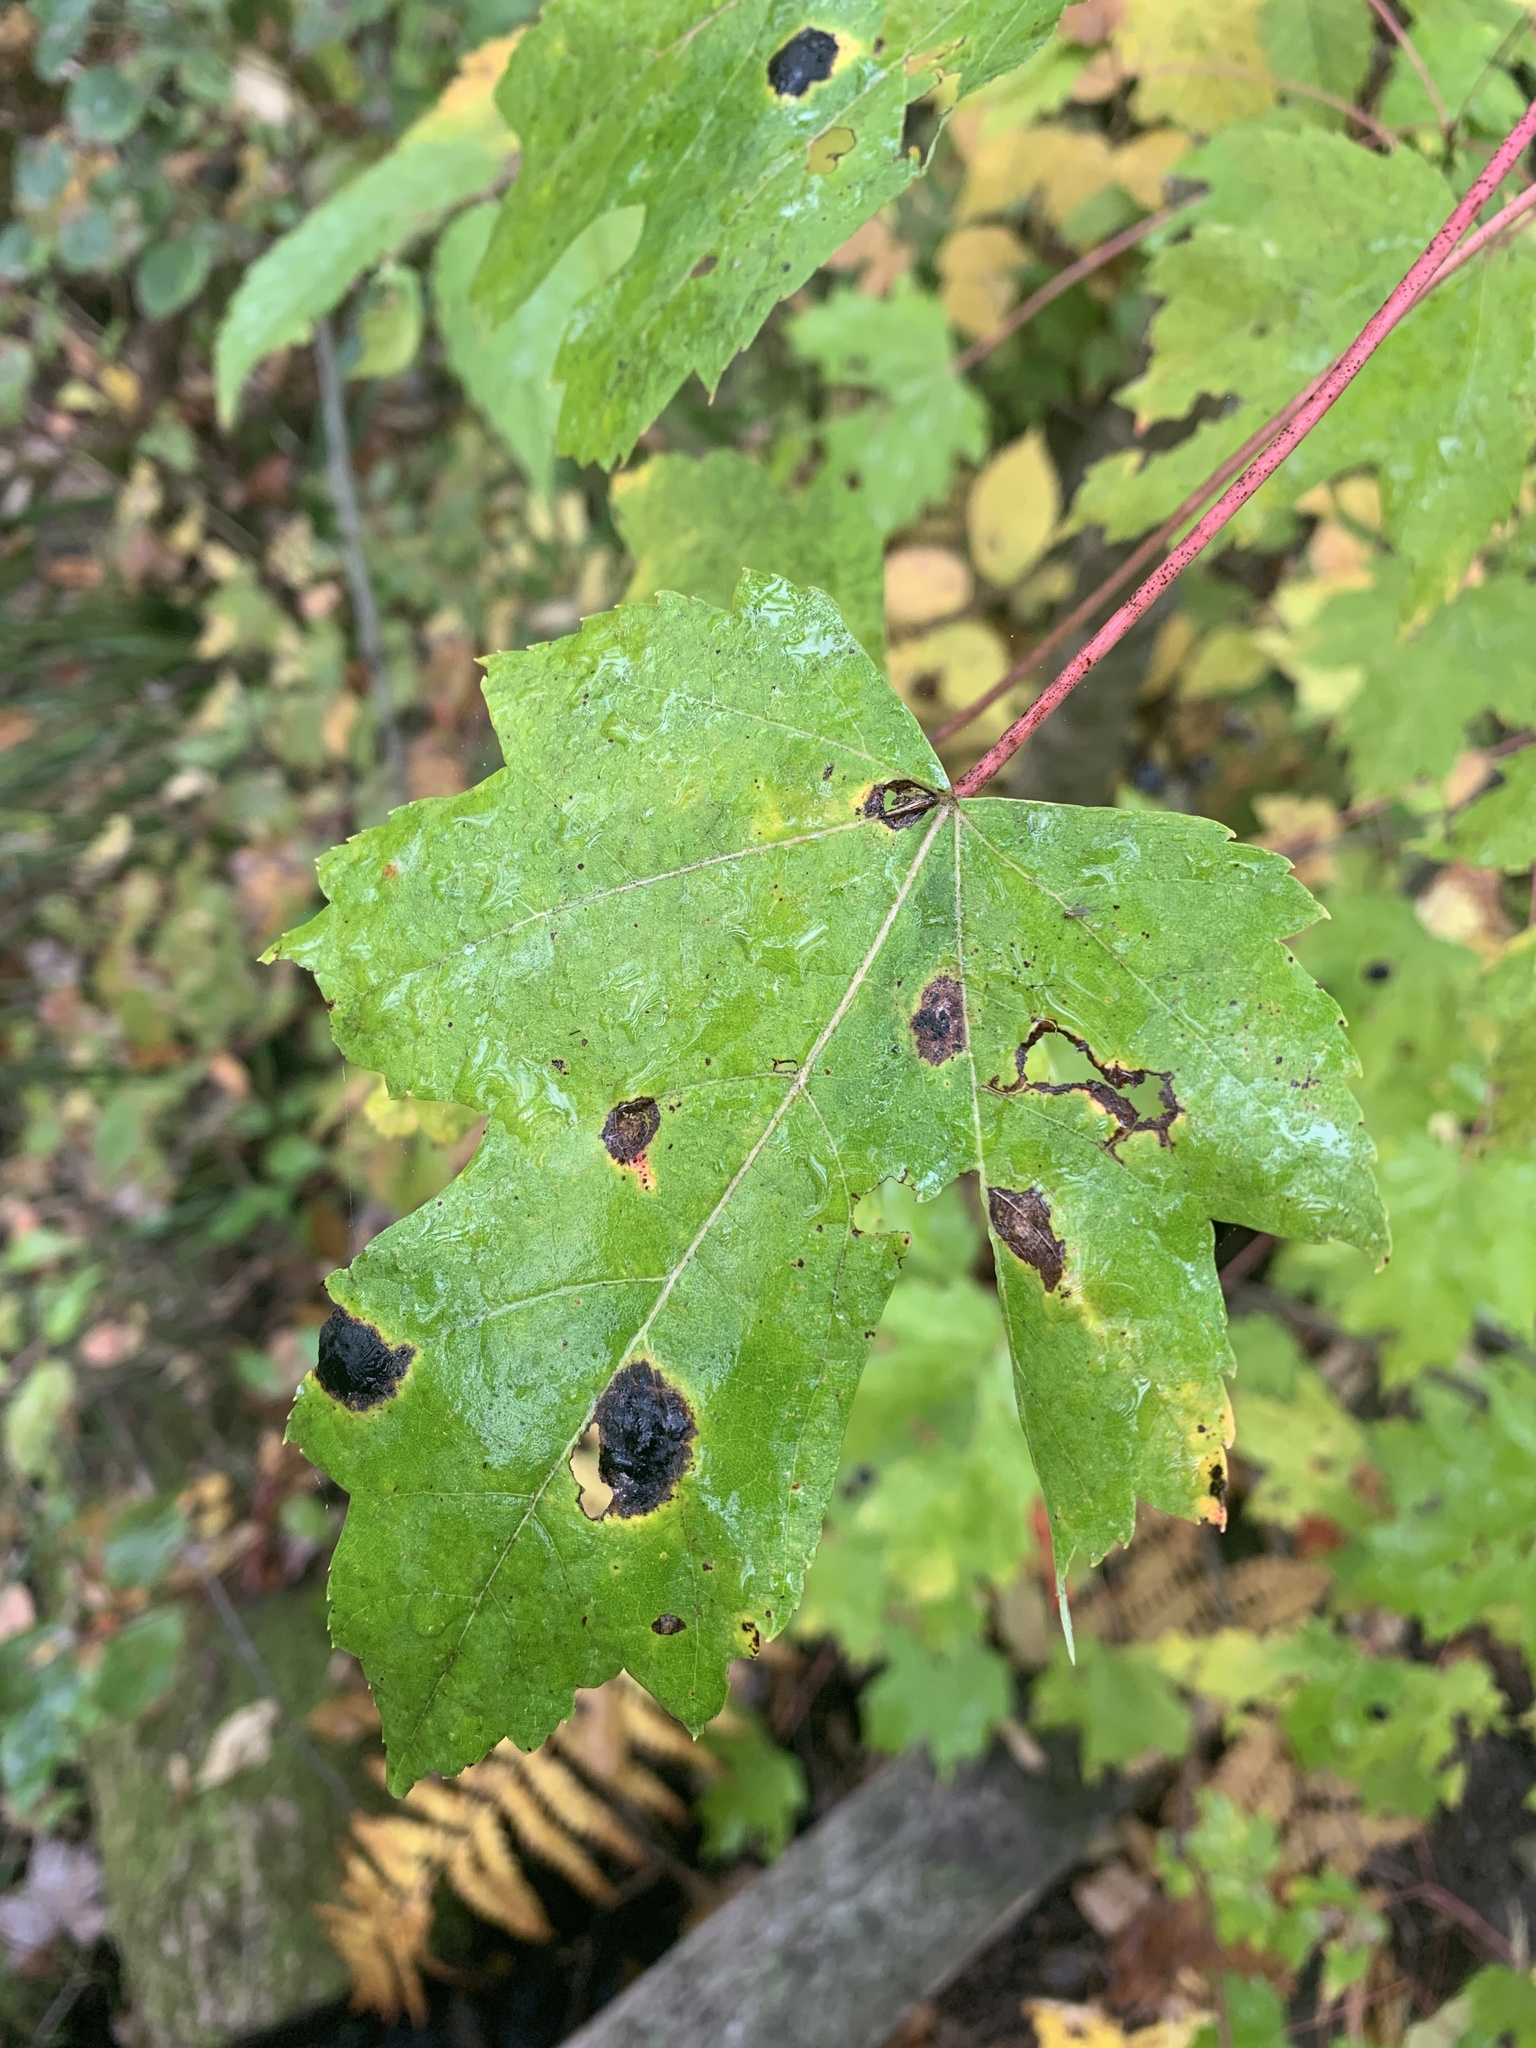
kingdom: Fungi
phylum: Ascomycota
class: Leotiomycetes
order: Rhytismatales
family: Rhytismataceae
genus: Rhytisma
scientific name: Rhytisma americanum
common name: American tar spot
